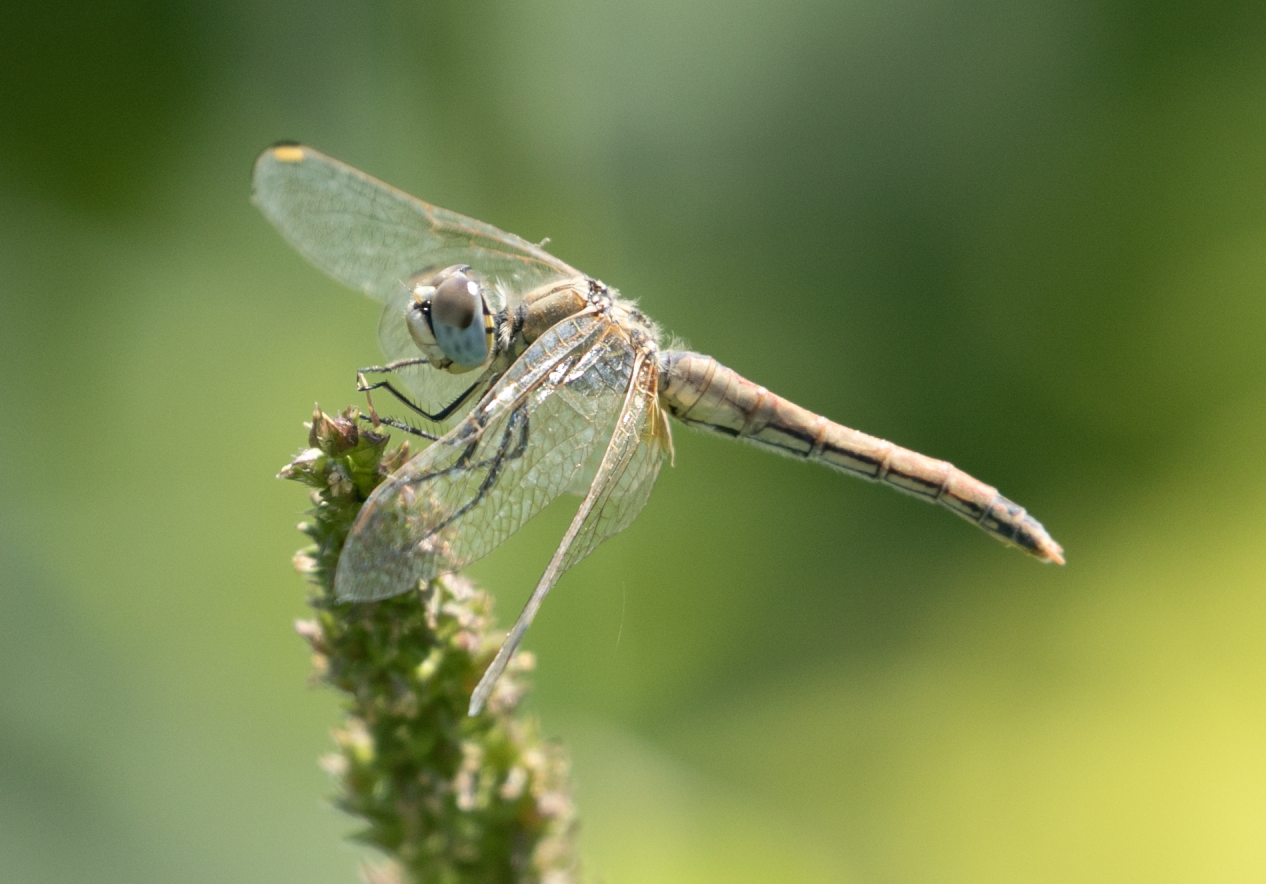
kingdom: Animalia
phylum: Arthropoda
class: Insecta
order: Odonata
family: Libellulidae
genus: Sympetrum
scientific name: Sympetrum fonscolombii
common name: Red-veined darter
